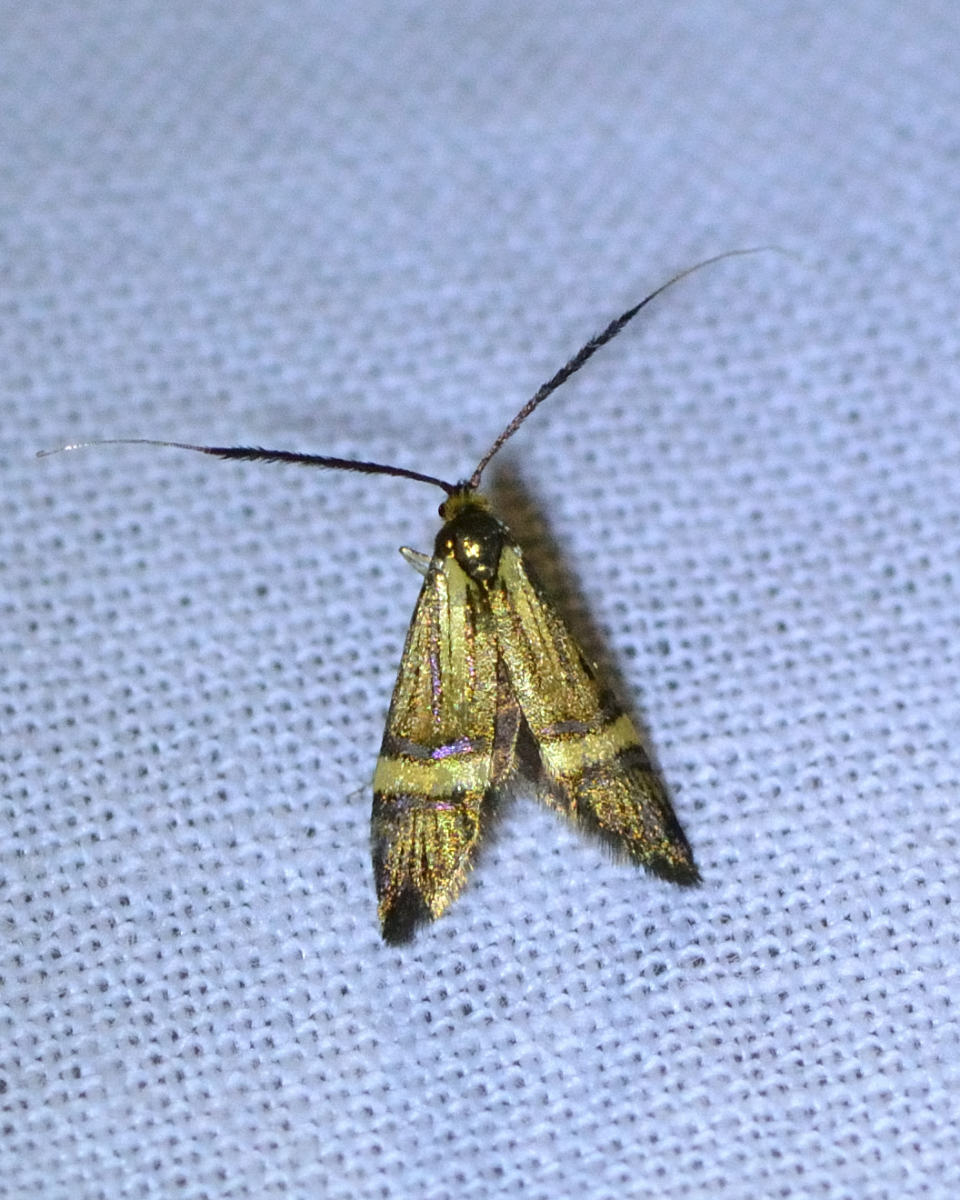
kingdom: Animalia
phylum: Arthropoda
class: Insecta
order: Lepidoptera
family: Adelidae
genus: Nemophora
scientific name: Nemophora degeerella
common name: Yellow-barred long-horn
